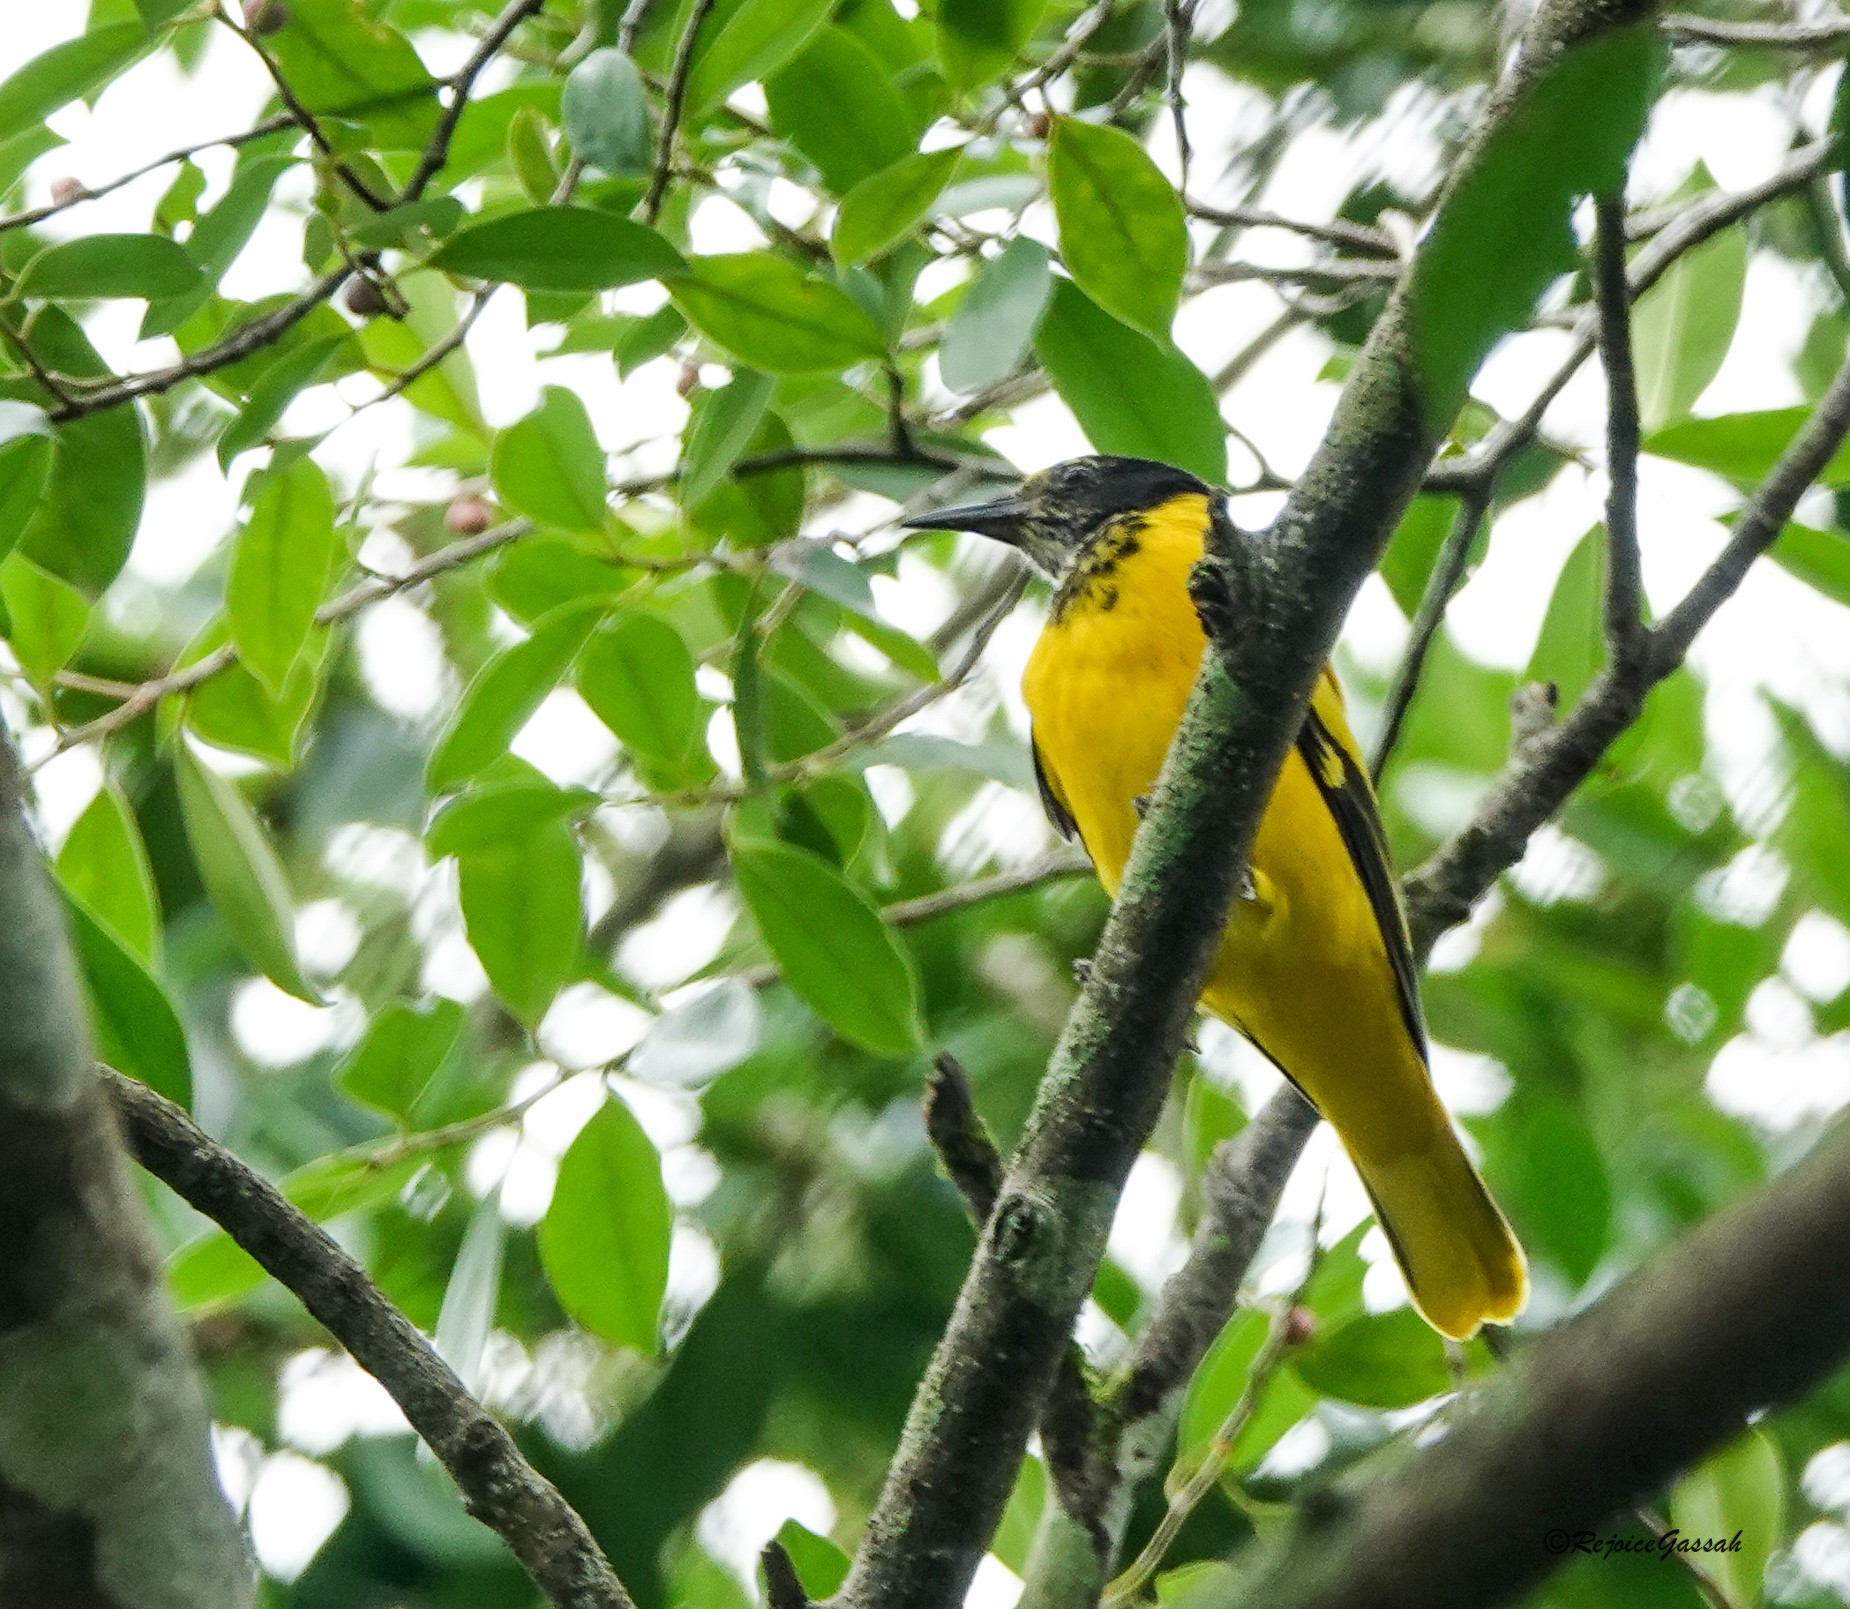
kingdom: Animalia
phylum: Chordata
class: Aves
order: Passeriformes
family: Oriolidae
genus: Oriolus
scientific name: Oriolus xanthornus
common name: Black-hooded oriole
